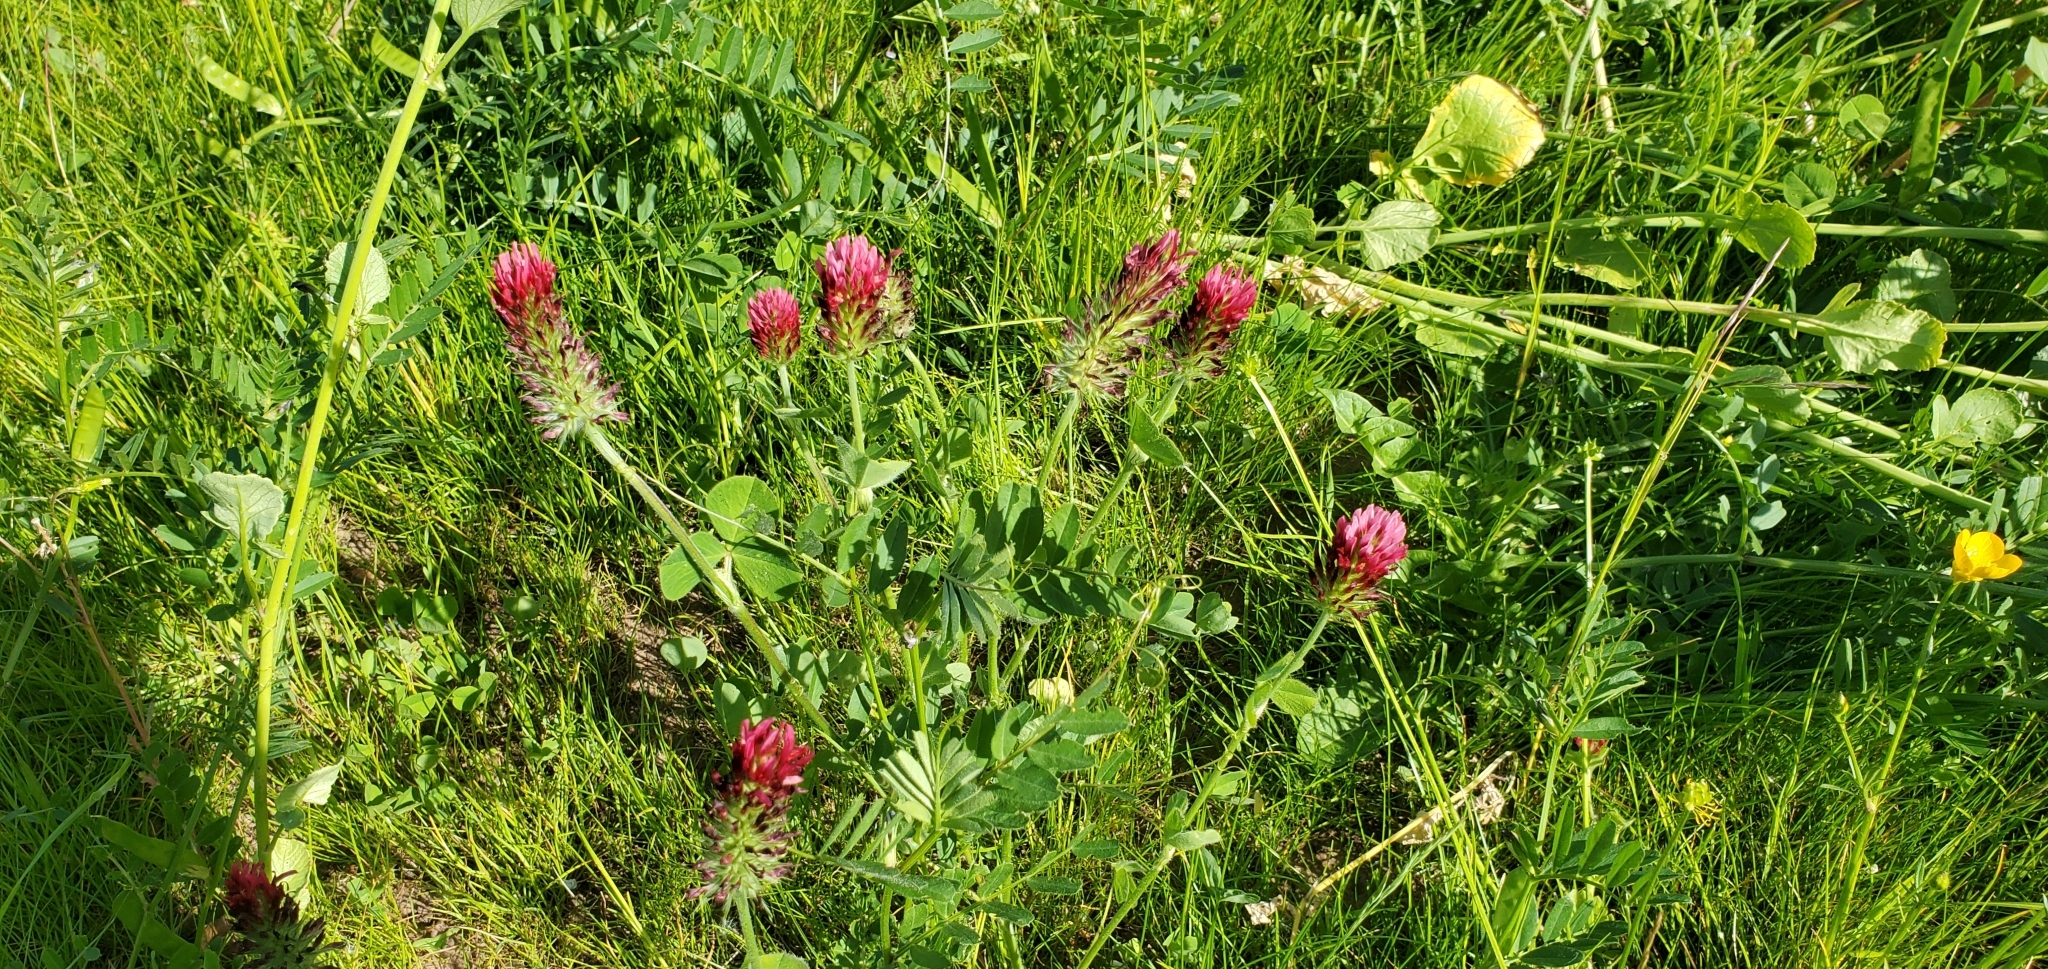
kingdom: Plantae
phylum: Tracheophyta
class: Magnoliopsida
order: Fabales
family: Fabaceae
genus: Trifolium
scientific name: Trifolium incarnatum
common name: Crimson clover
